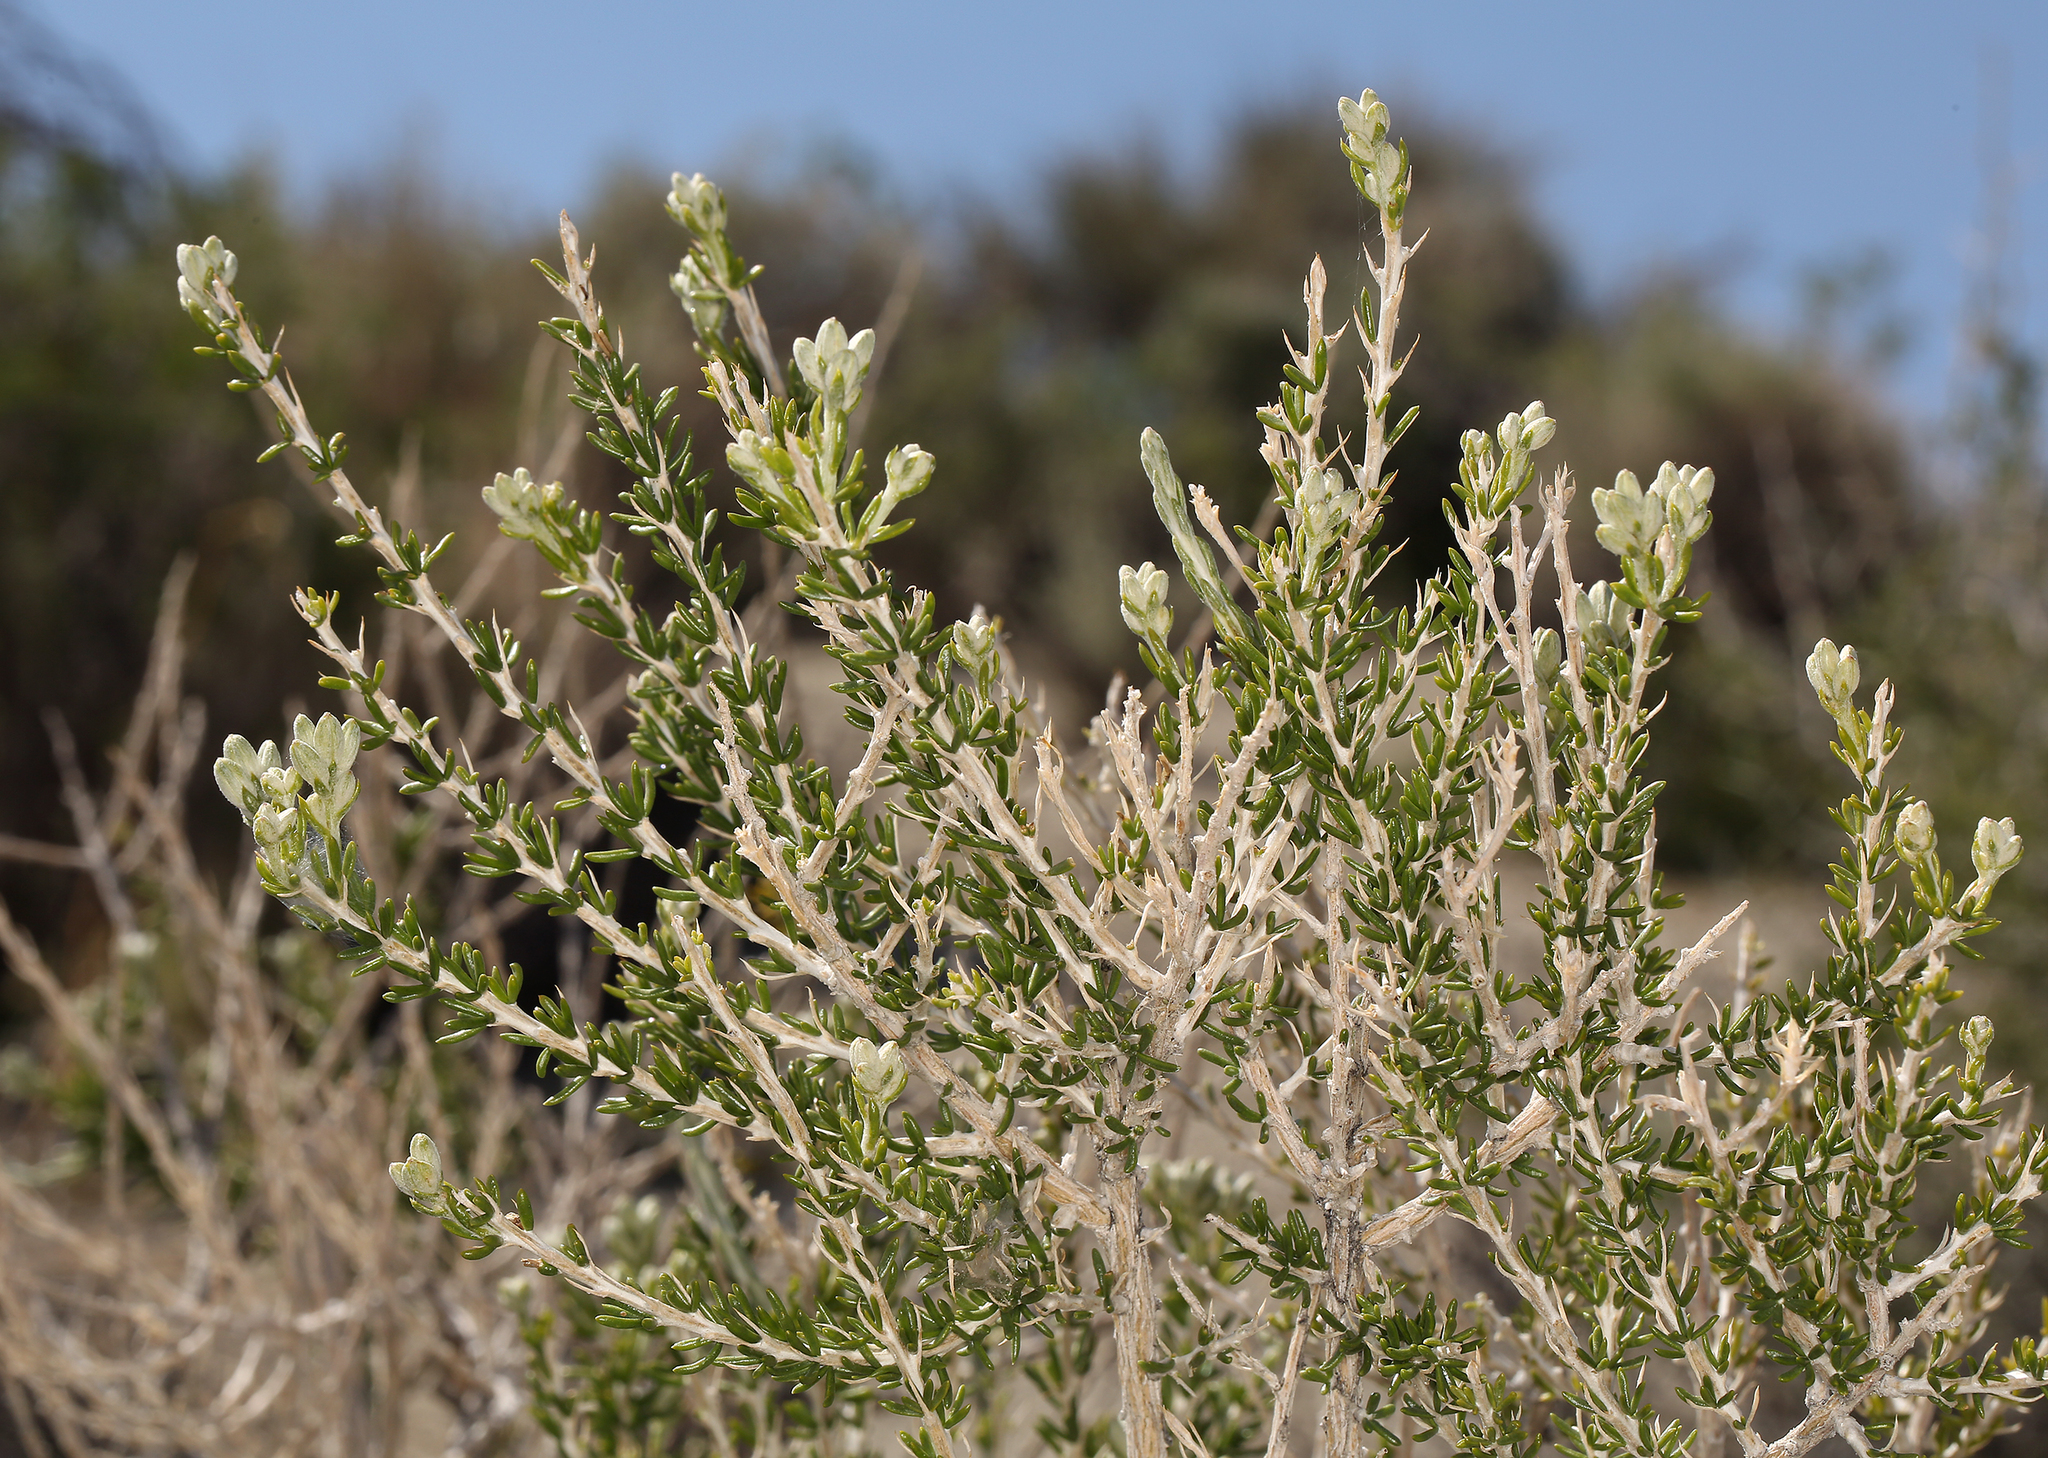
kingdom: Plantae
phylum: Tracheophyta
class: Magnoliopsida
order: Asterales
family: Asteraceae
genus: Tetradymia
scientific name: Tetradymia glabrata
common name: Smooth tetradymia
